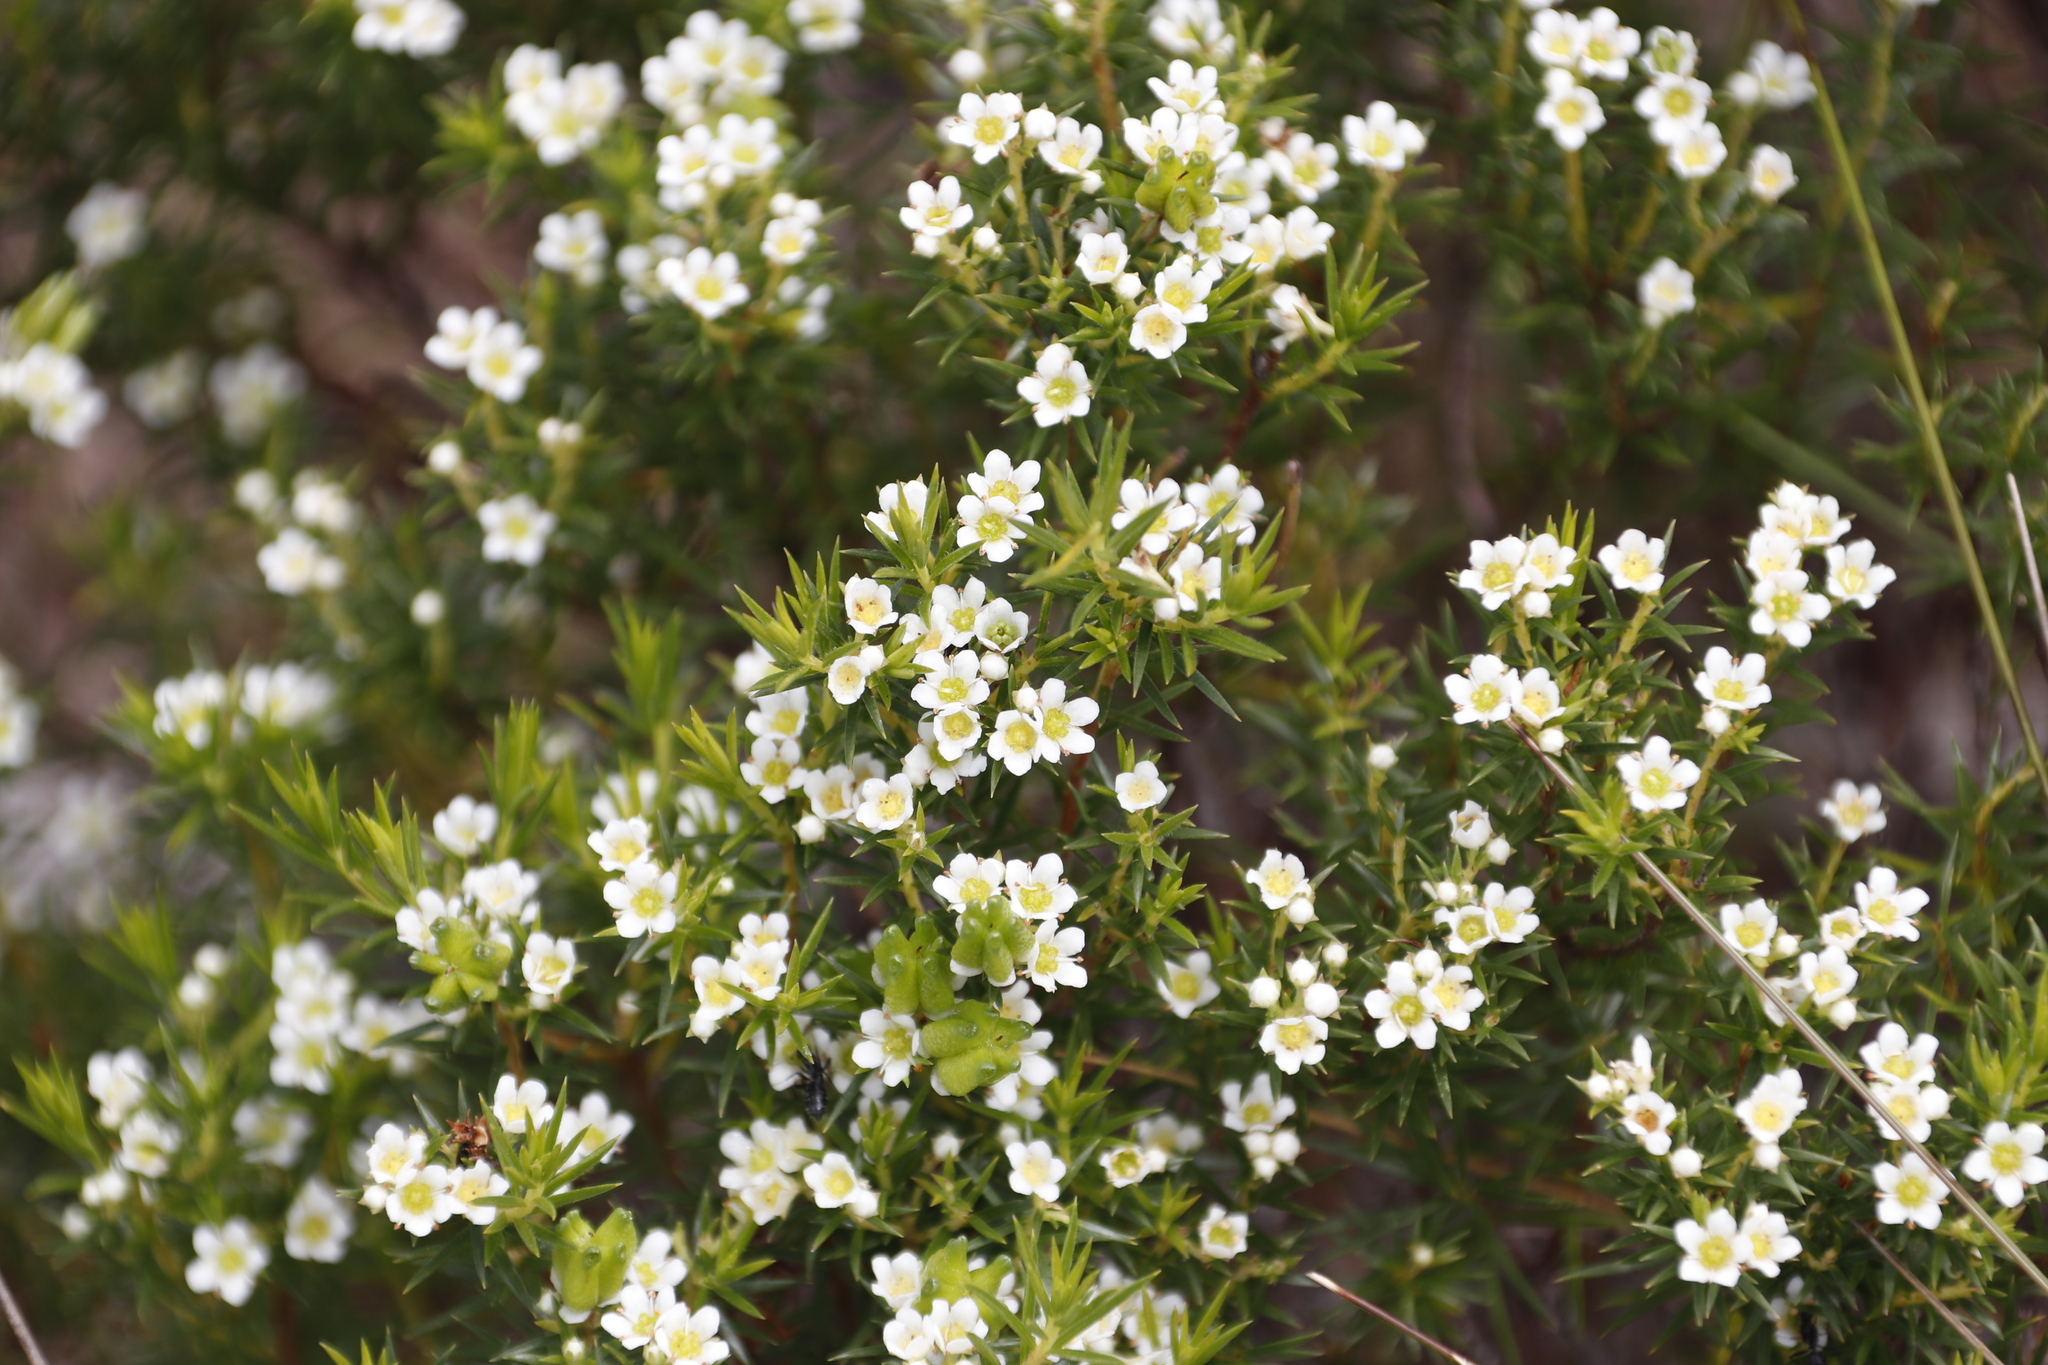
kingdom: Plantae
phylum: Tracheophyta
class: Magnoliopsida
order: Sapindales
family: Rutaceae
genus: Diosma
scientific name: Diosma hirsuta
